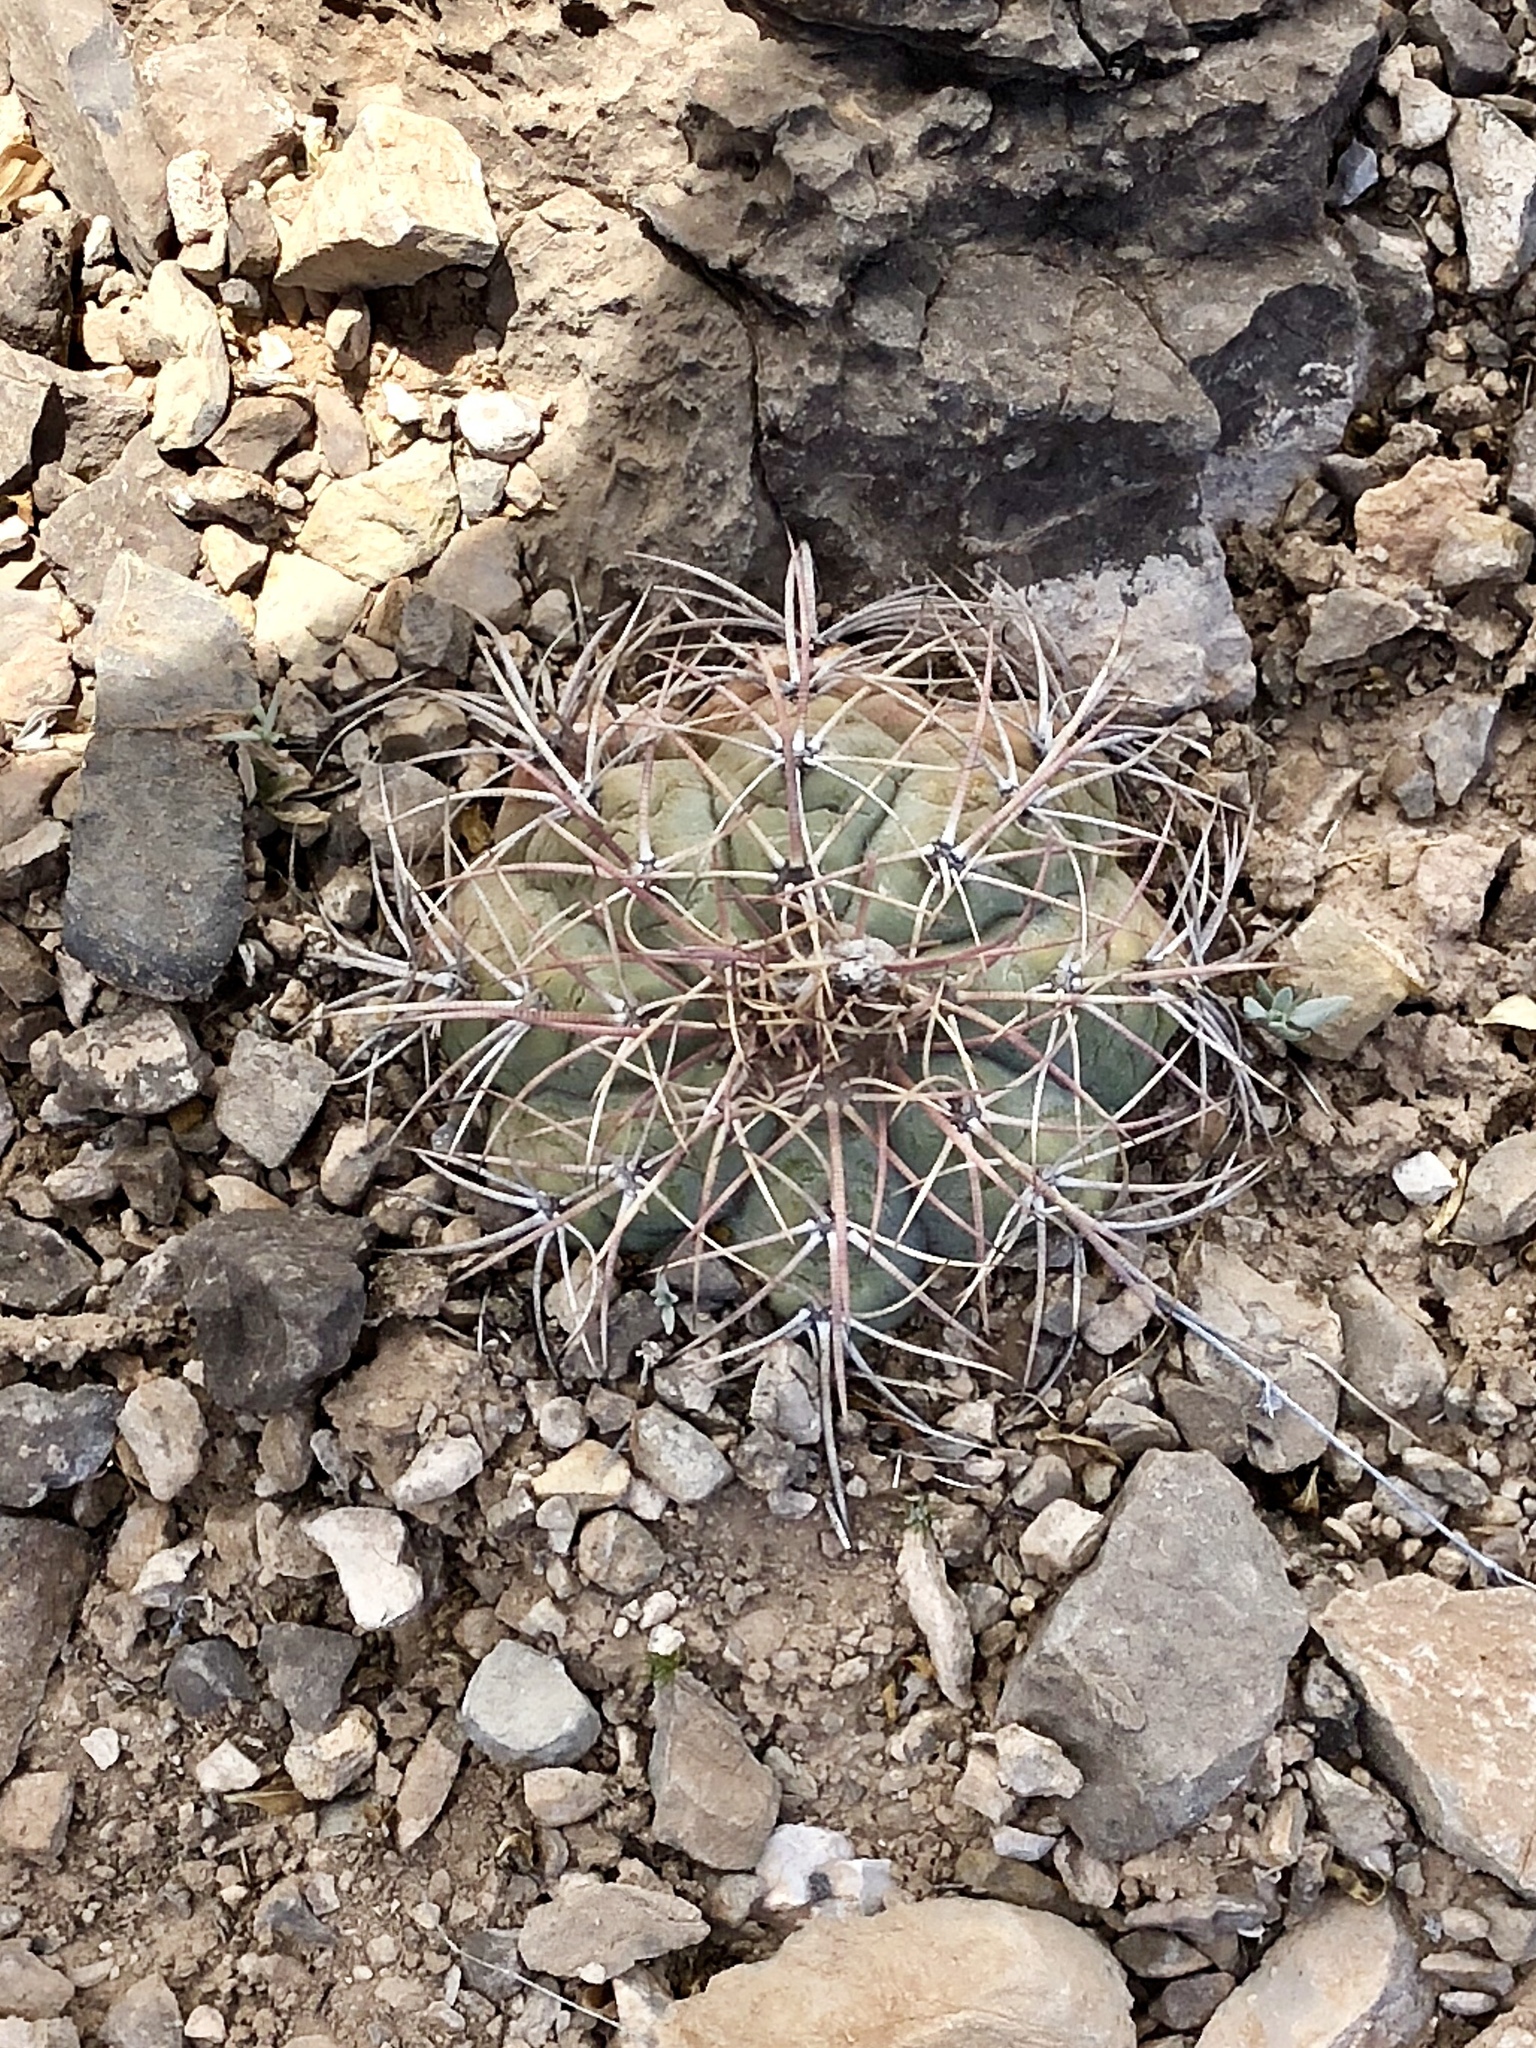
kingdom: Plantae
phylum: Tracheophyta
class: Magnoliopsida
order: Caryophyllales
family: Cactaceae
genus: Echinocactus
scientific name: Echinocactus horizonthalonius
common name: Devilshead
